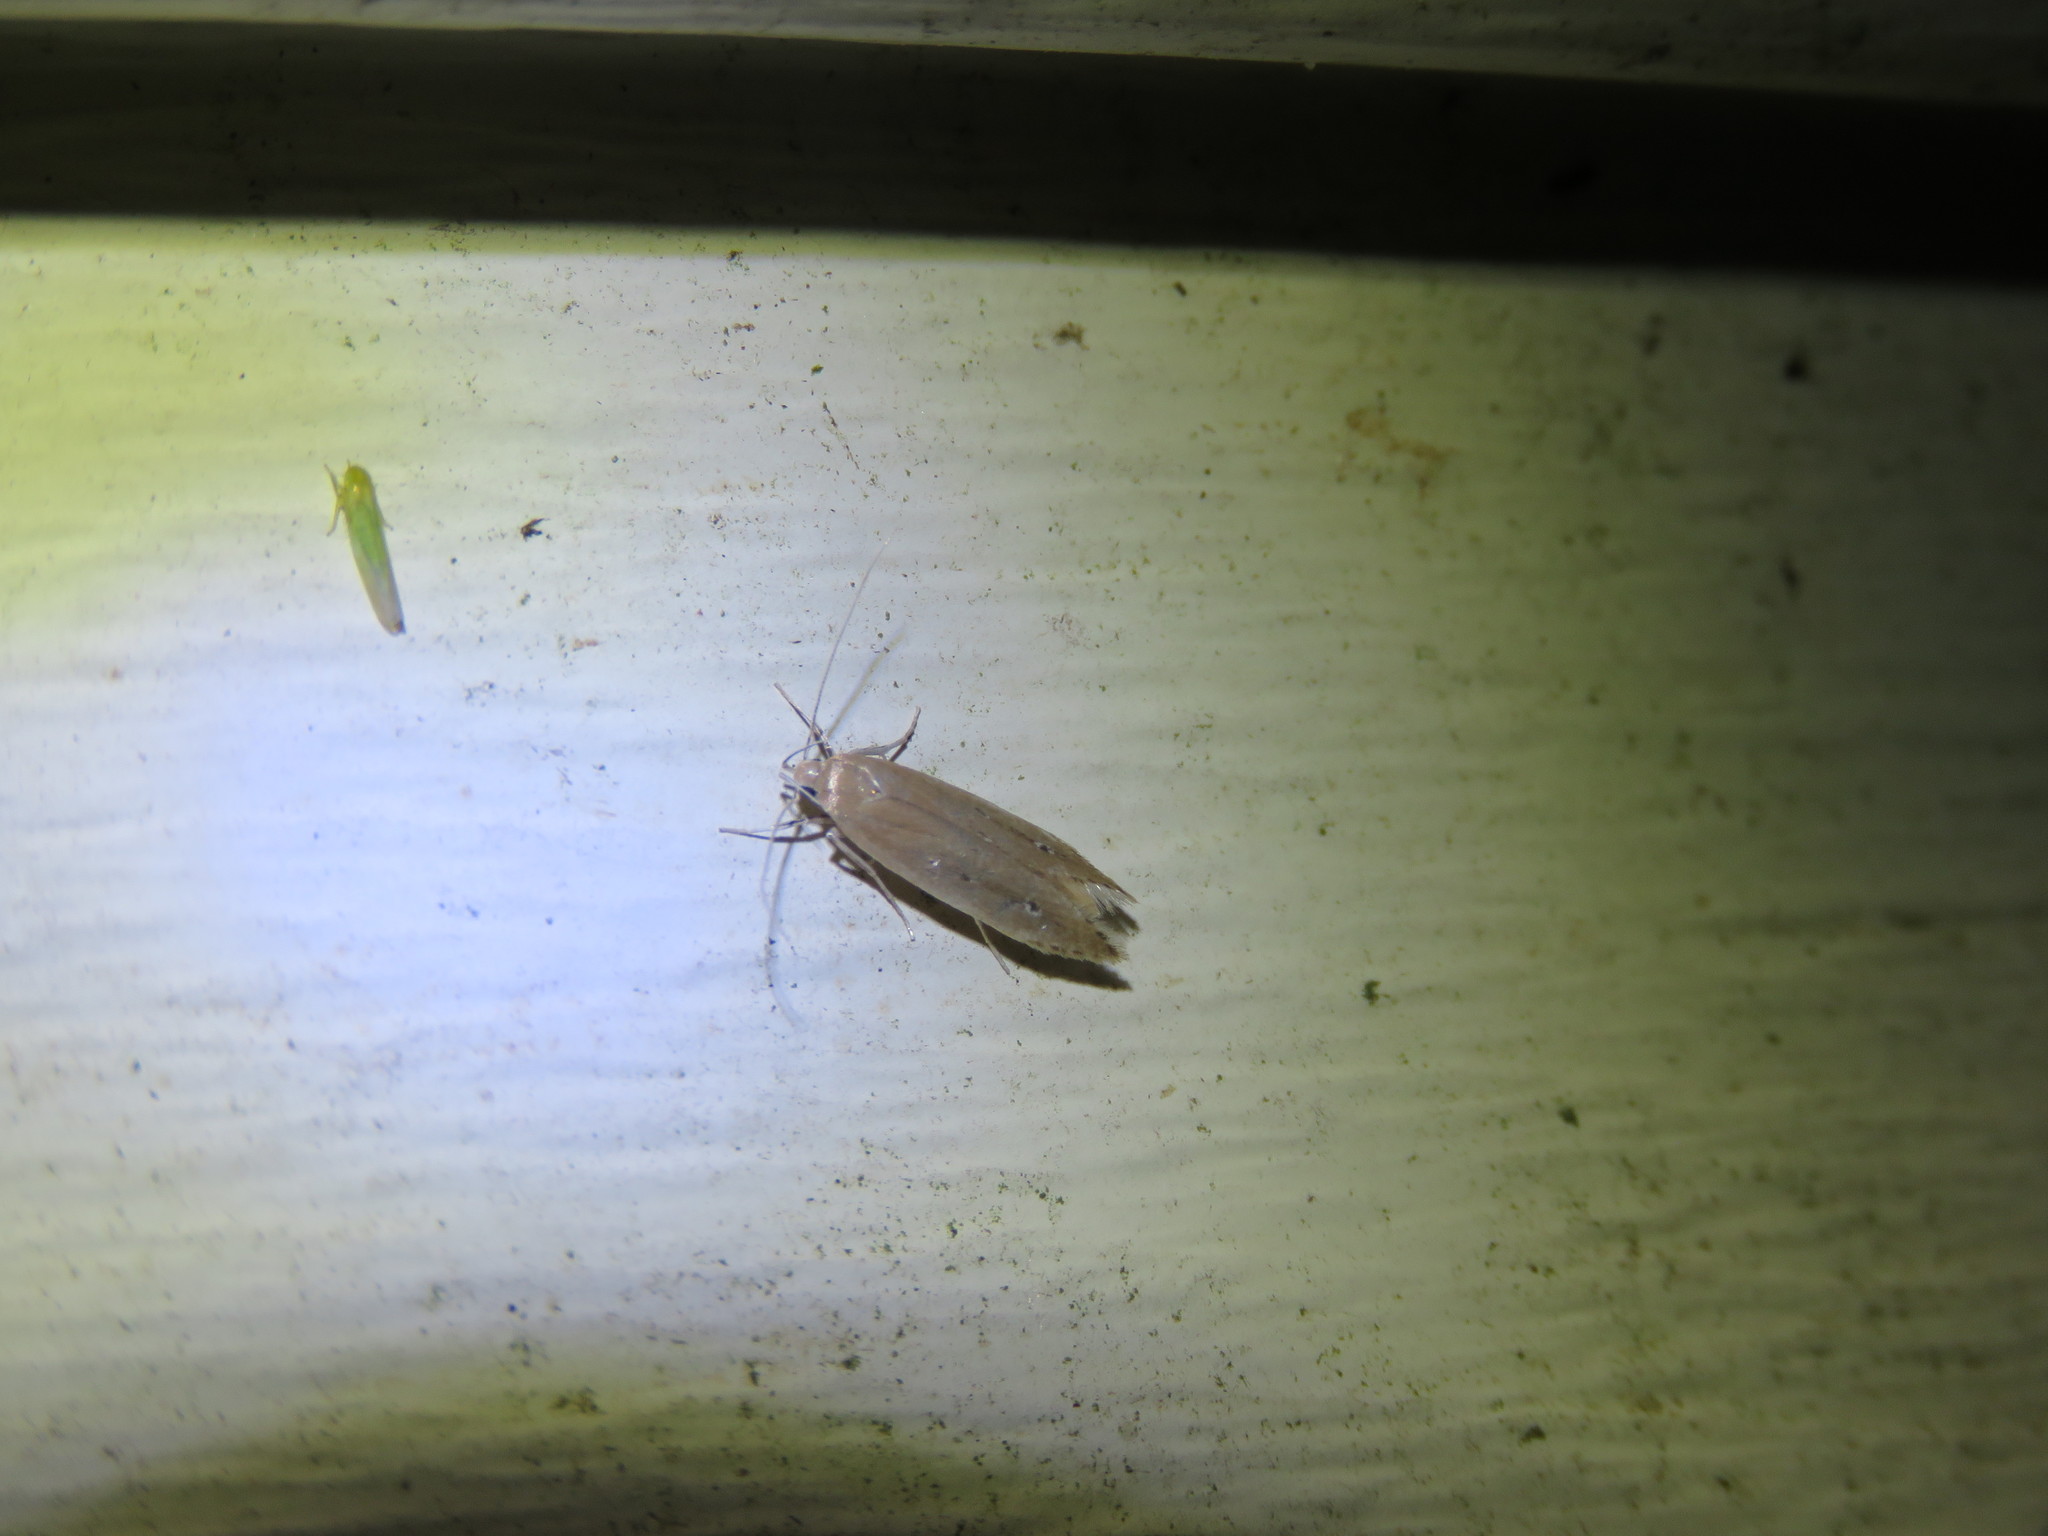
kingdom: Animalia
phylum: Arthropoda
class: Insecta
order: Lepidoptera
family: Cosmopterigidae
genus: Limnaecia
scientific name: Limnaecia phragmitella
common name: Bulrush cosmet
